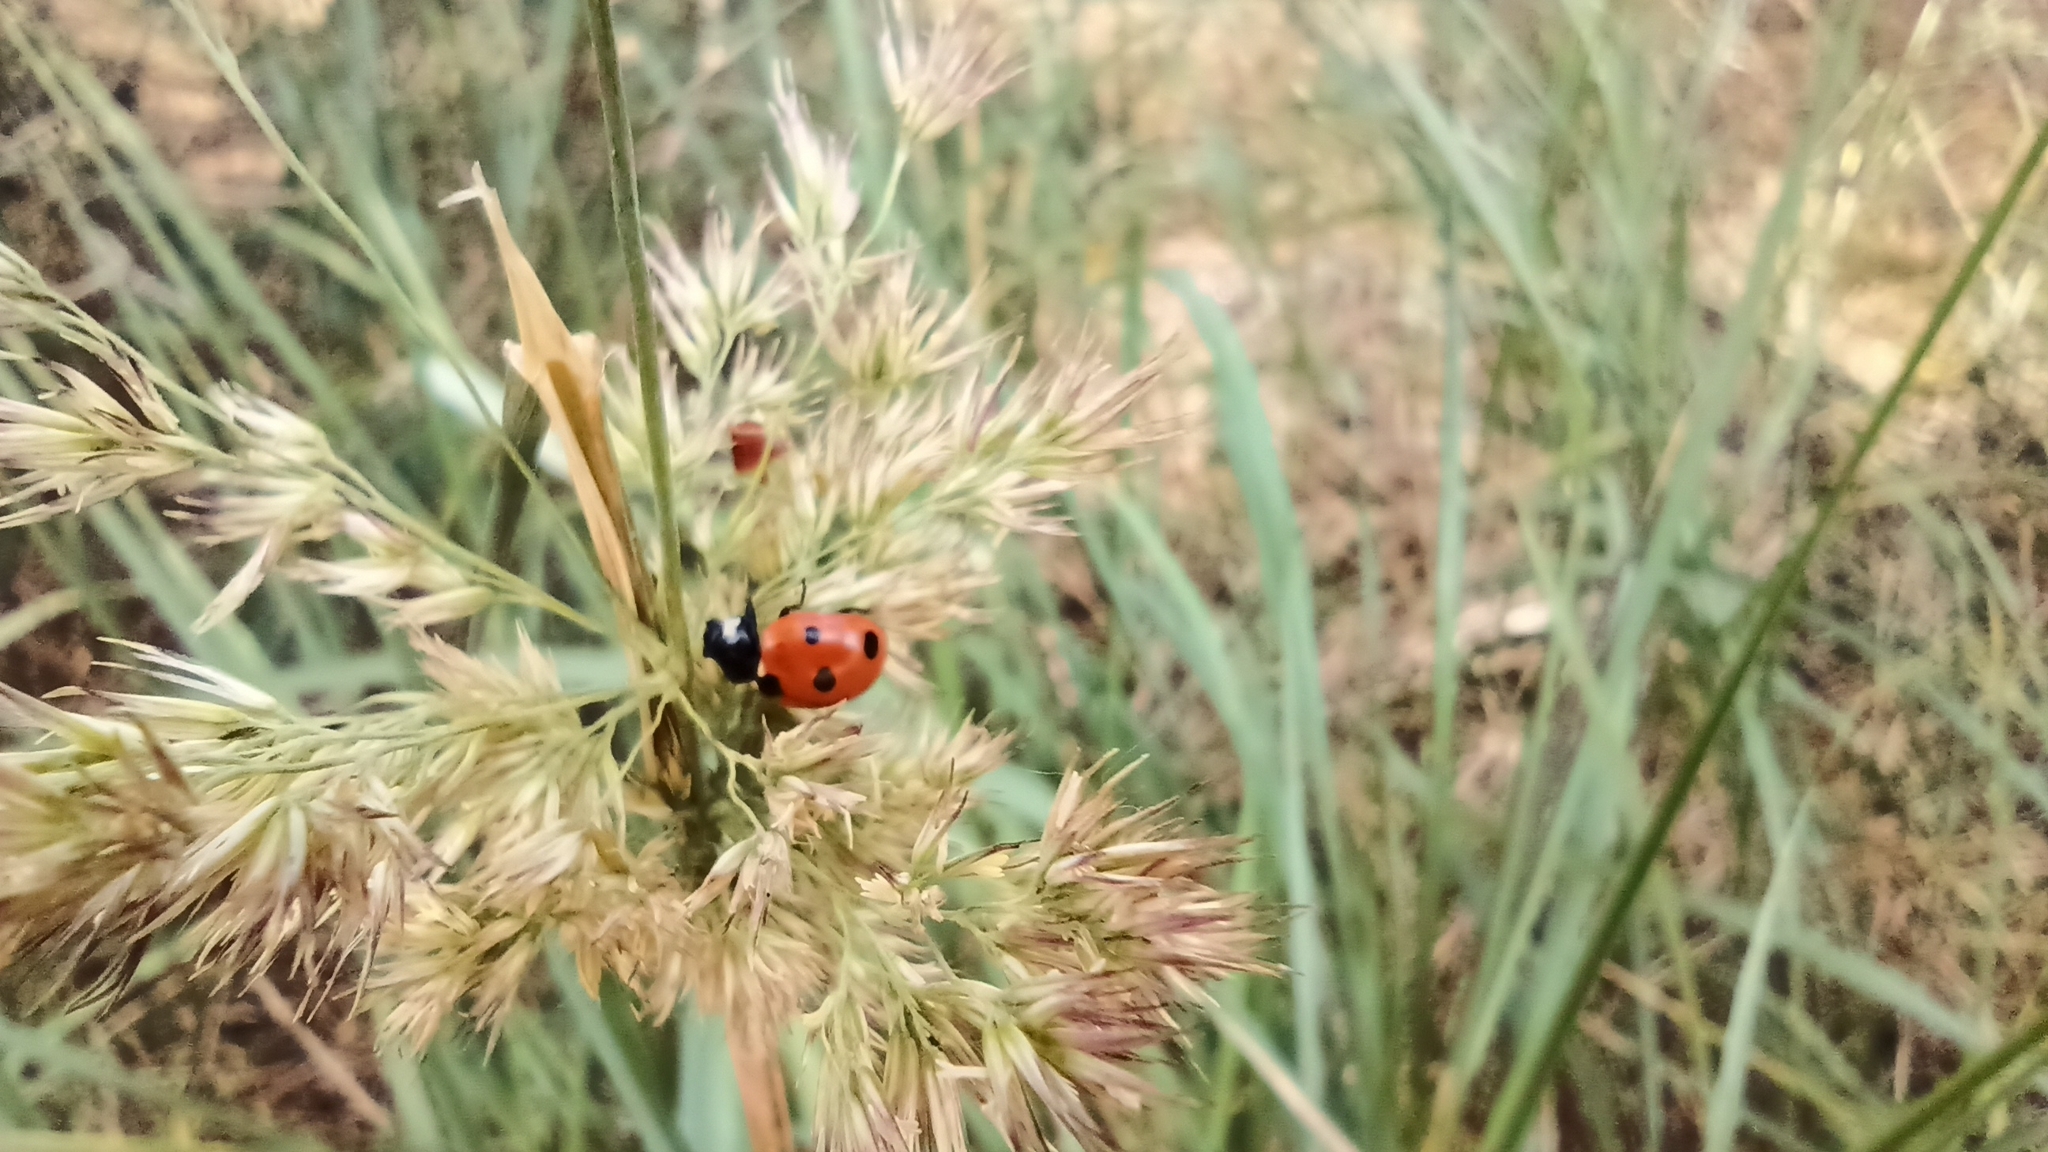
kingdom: Animalia
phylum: Arthropoda
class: Insecta
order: Coleoptera
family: Coccinellidae
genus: Coccinella
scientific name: Coccinella septempunctata
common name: Sevenspotted lady beetle
